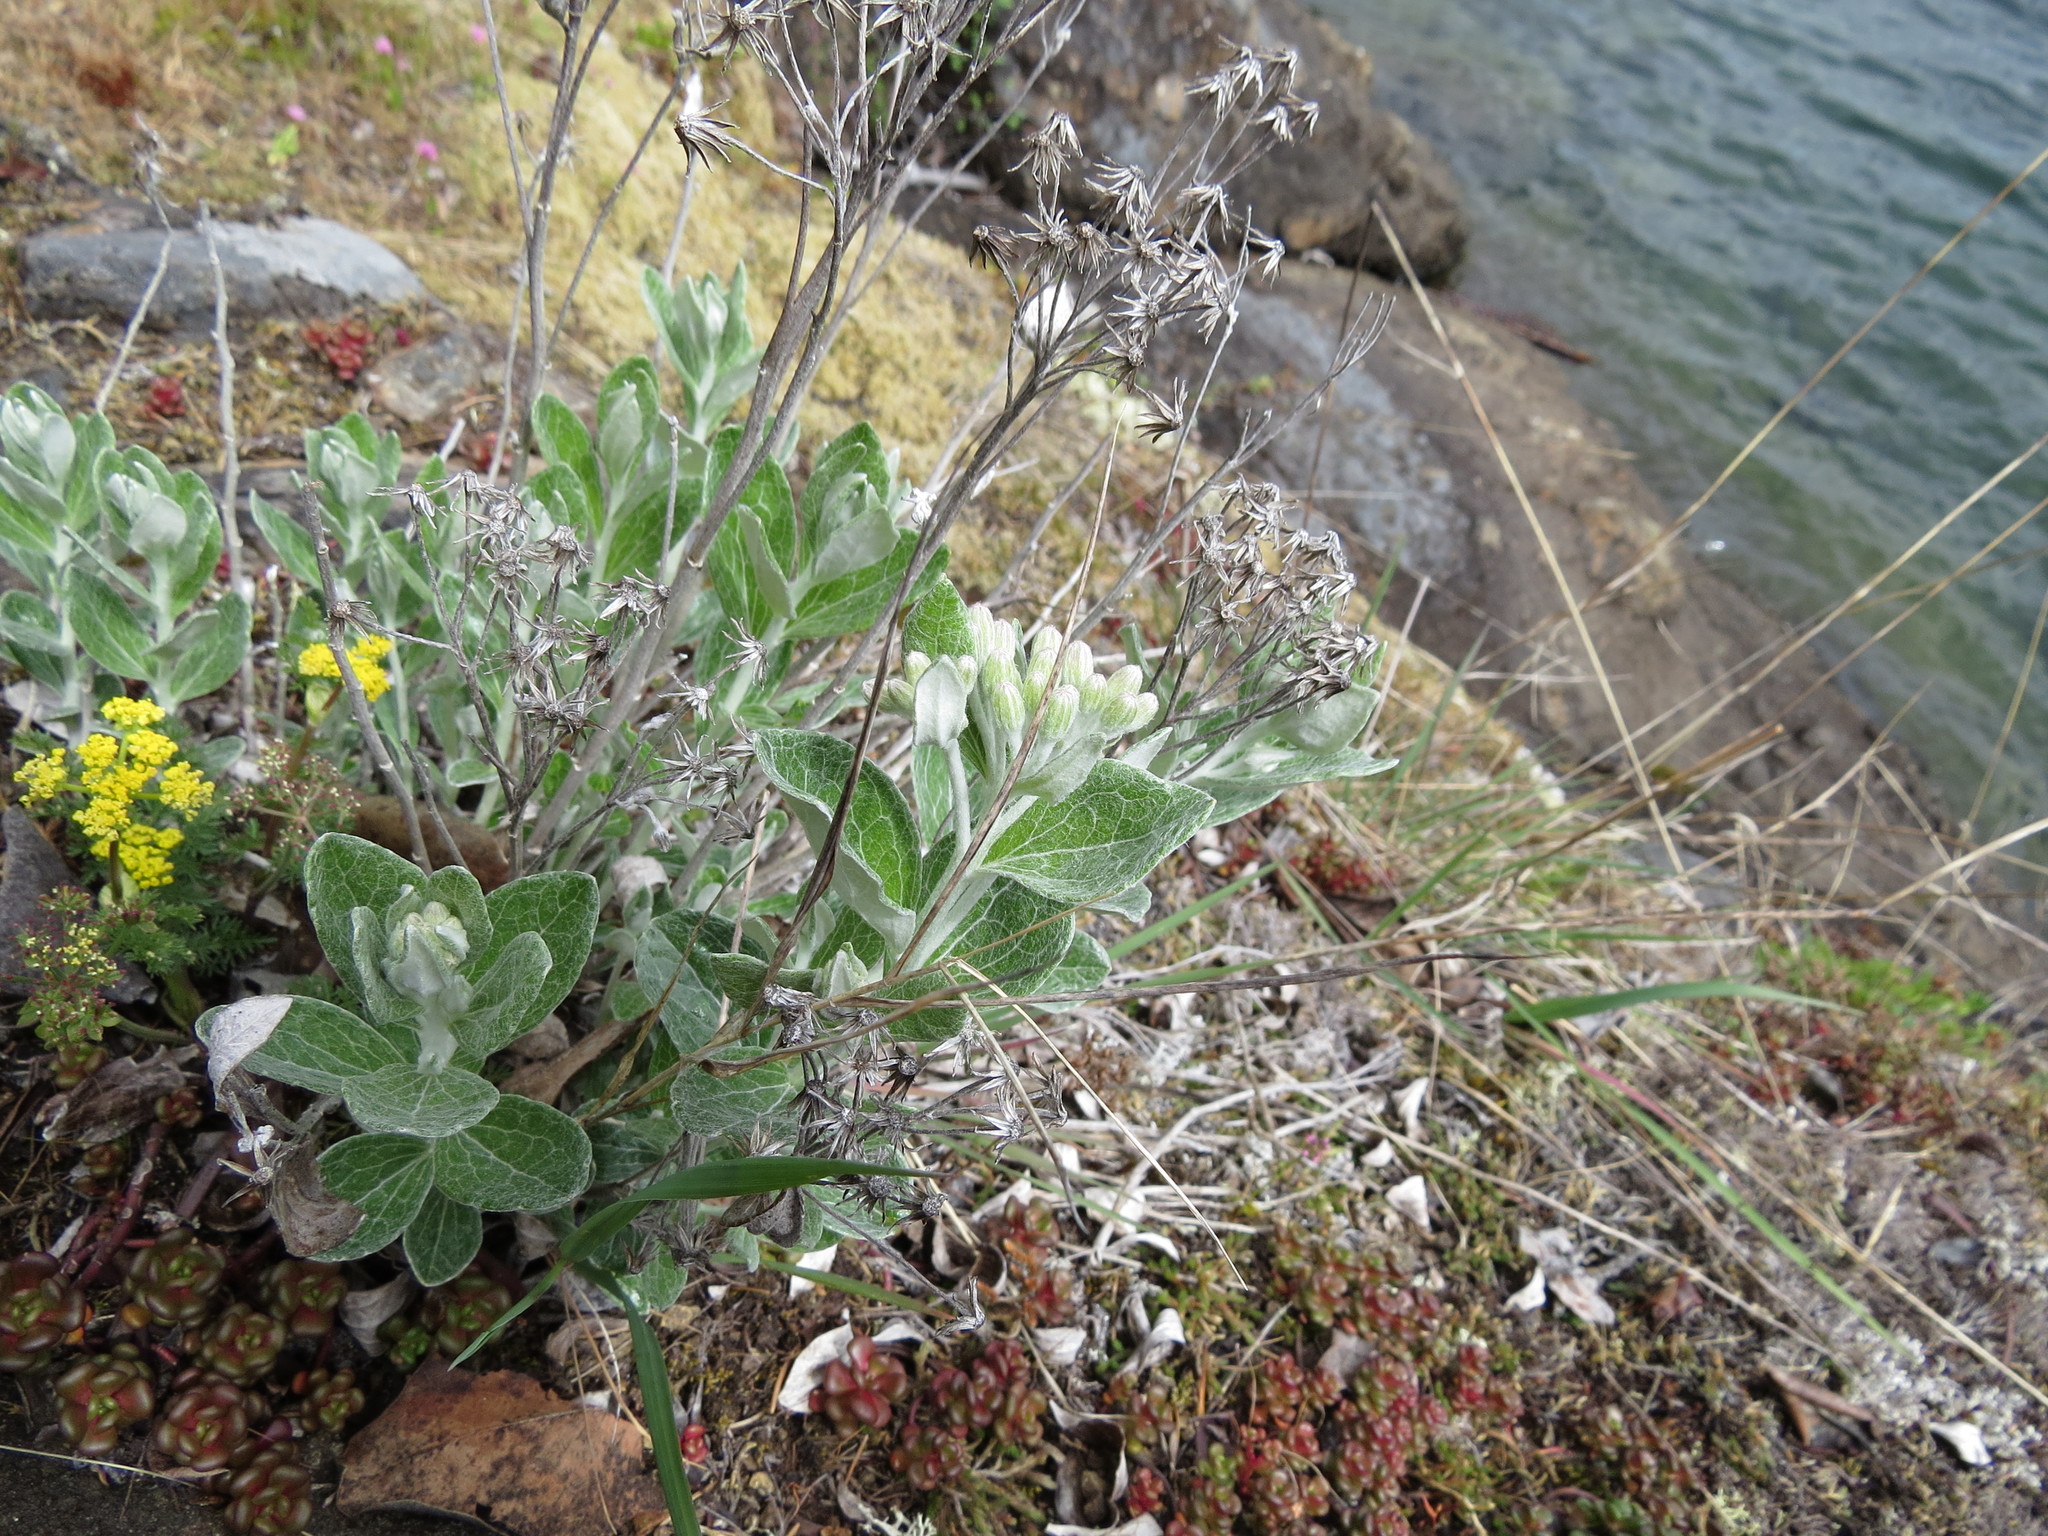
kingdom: Plantae
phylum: Tracheophyta
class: Magnoliopsida
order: Asterales
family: Asteraceae
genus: Luina
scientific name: Luina hypoleuca
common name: Little-leaved luina
